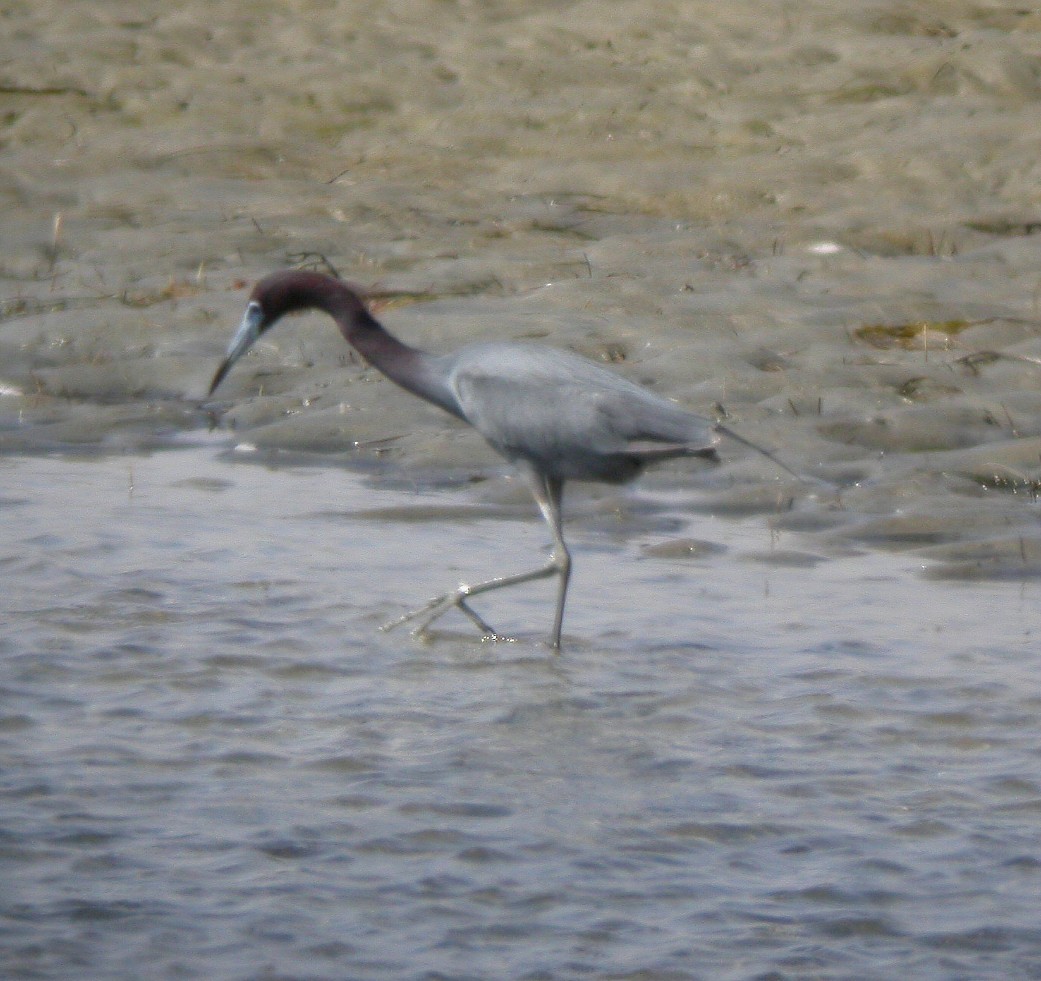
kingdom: Animalia
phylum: Chordata
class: Aves
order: Pelecaniformes
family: Ardeidae
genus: Egretta
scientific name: Egretta caerulea
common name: Little blue heron
